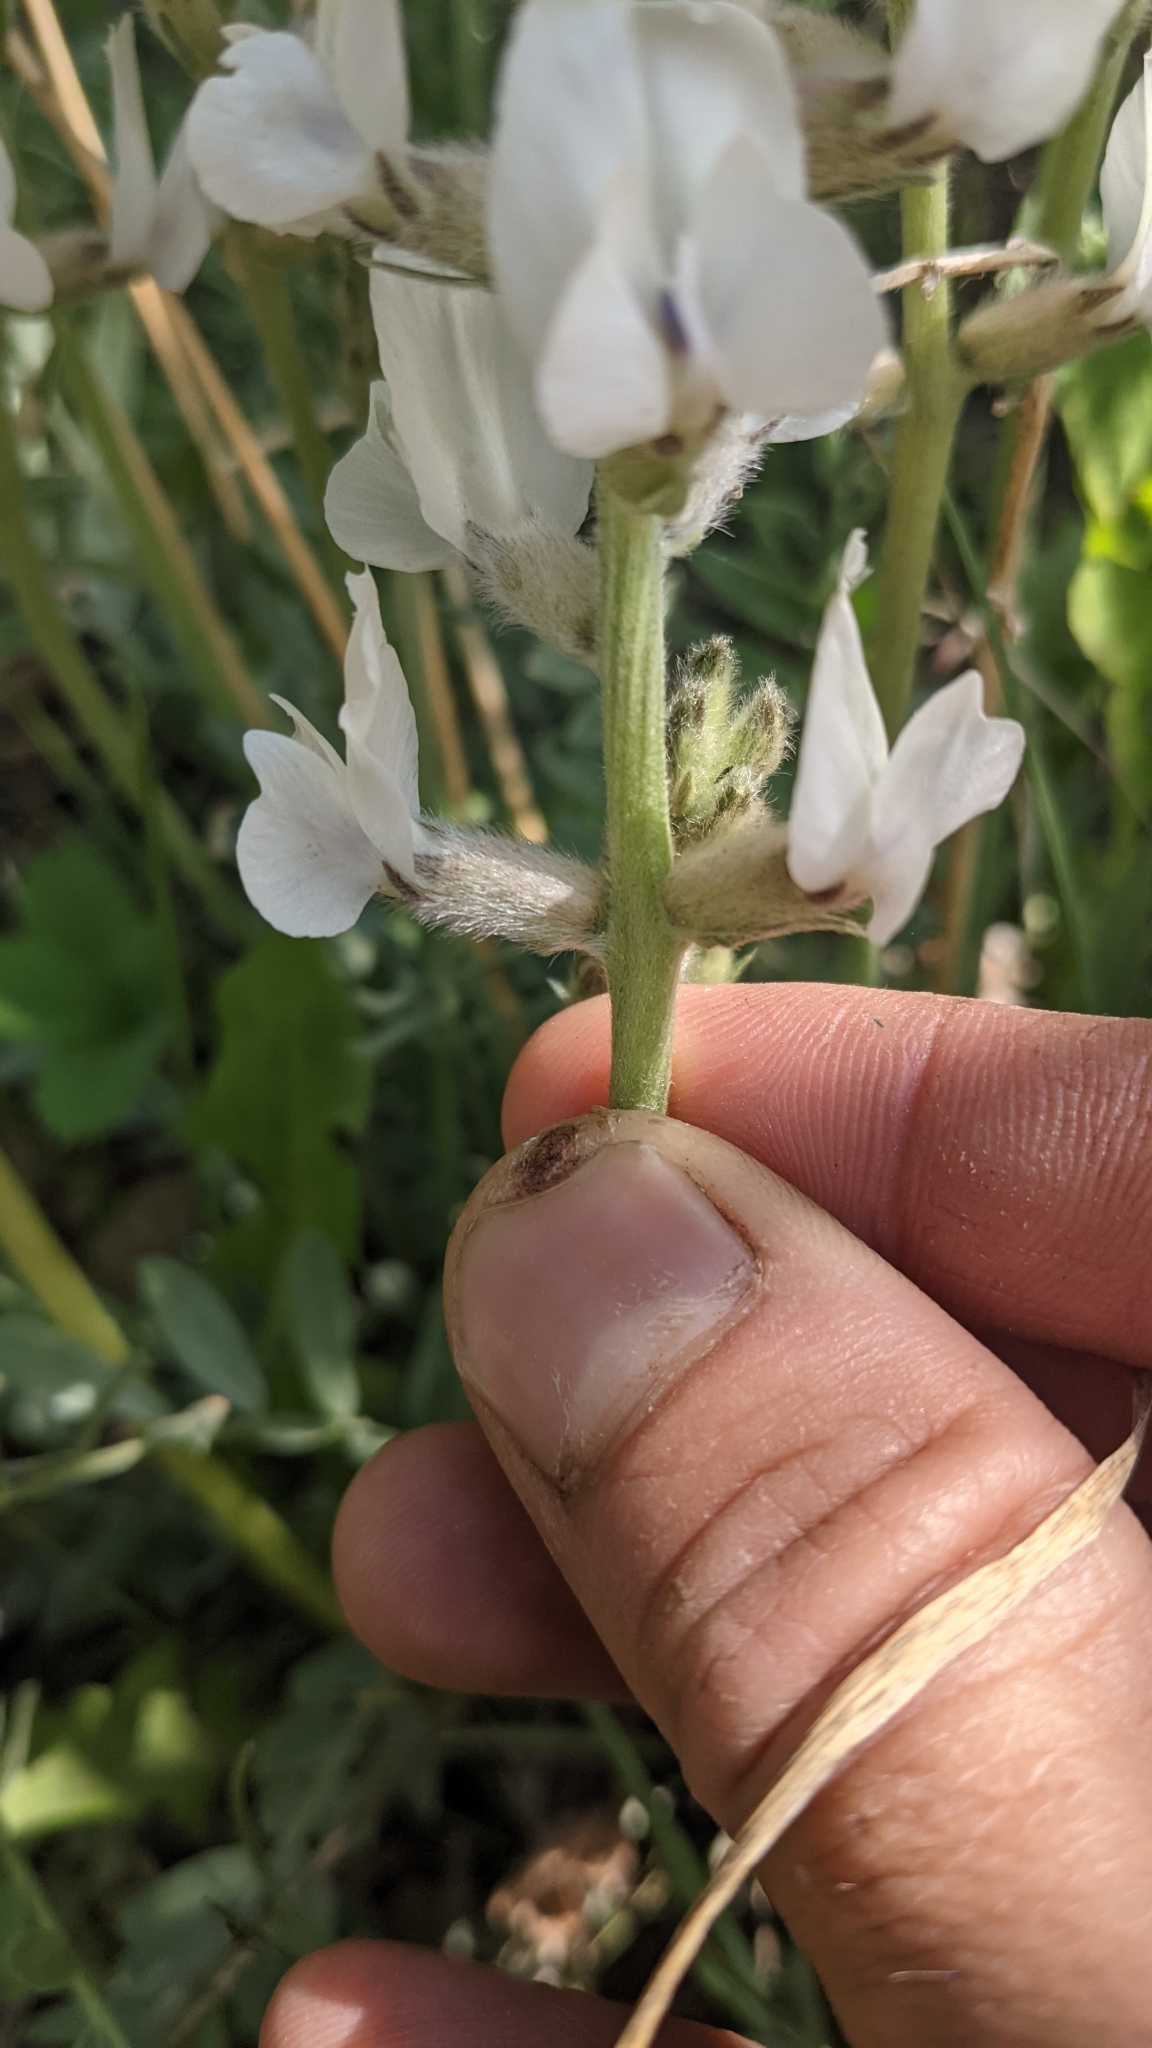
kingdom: Plantae
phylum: Tracheophyta
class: Magnoliopsida
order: Fabales
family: Fabaceae
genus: Oxytropis
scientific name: Oxytropis sericea
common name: Silky locoweed
